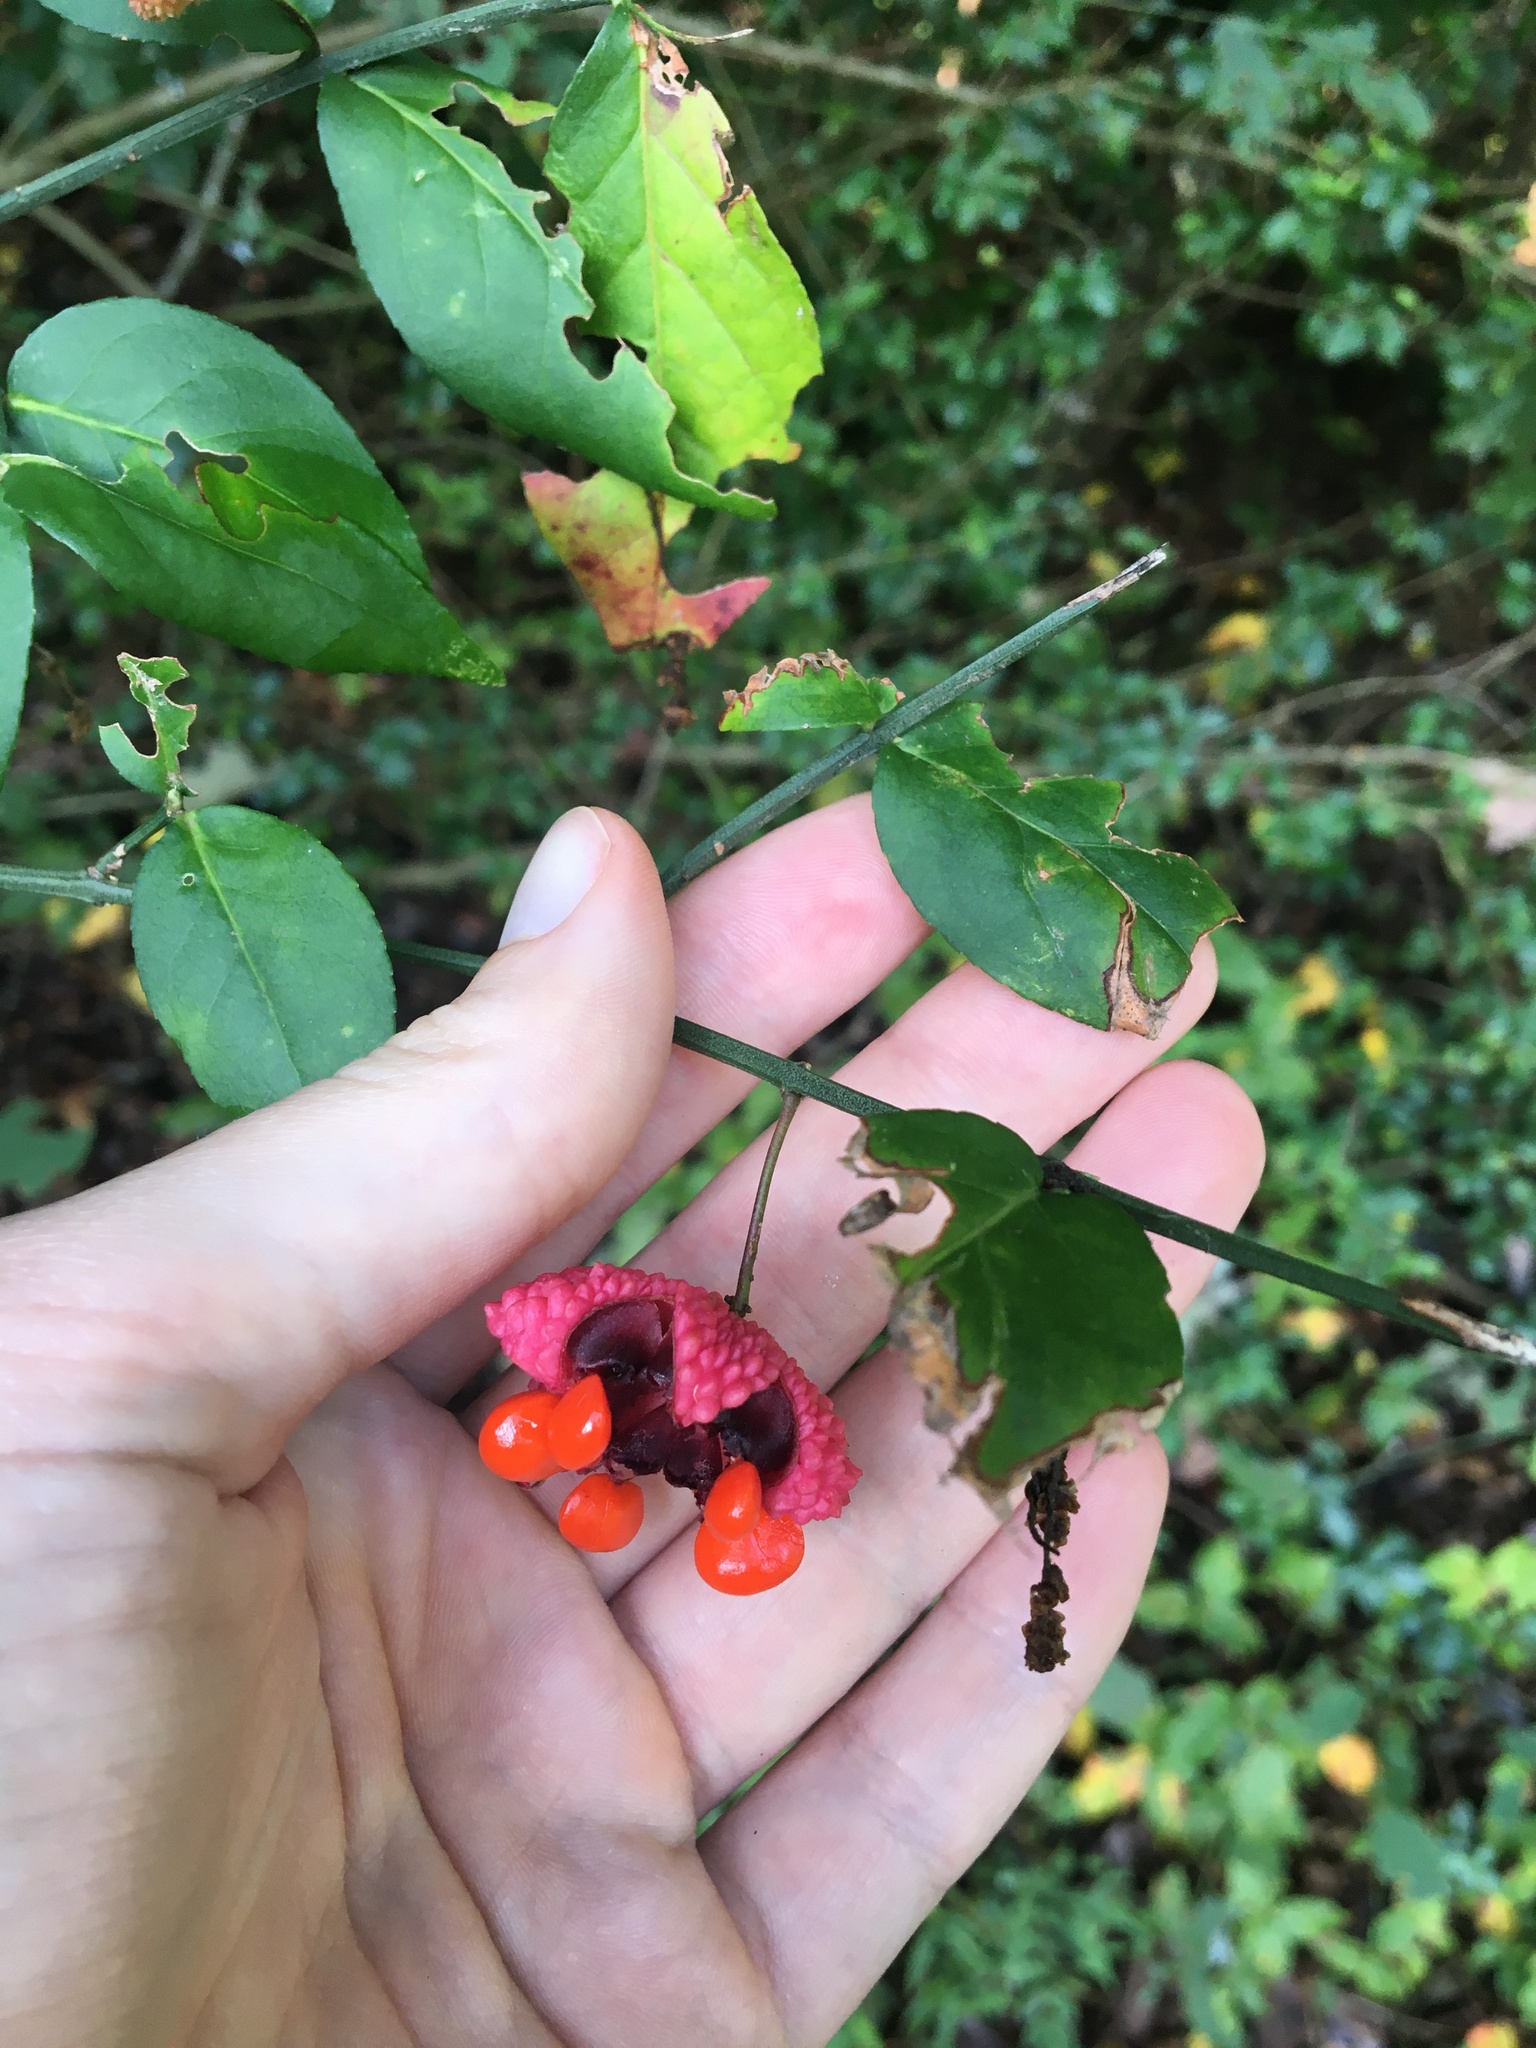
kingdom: Plantae
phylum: Tracheophyta
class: Magnoliopsida
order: Celastrales
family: Celastraceae
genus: Euonymus
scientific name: Euonymus americanus
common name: Bursting-heart
